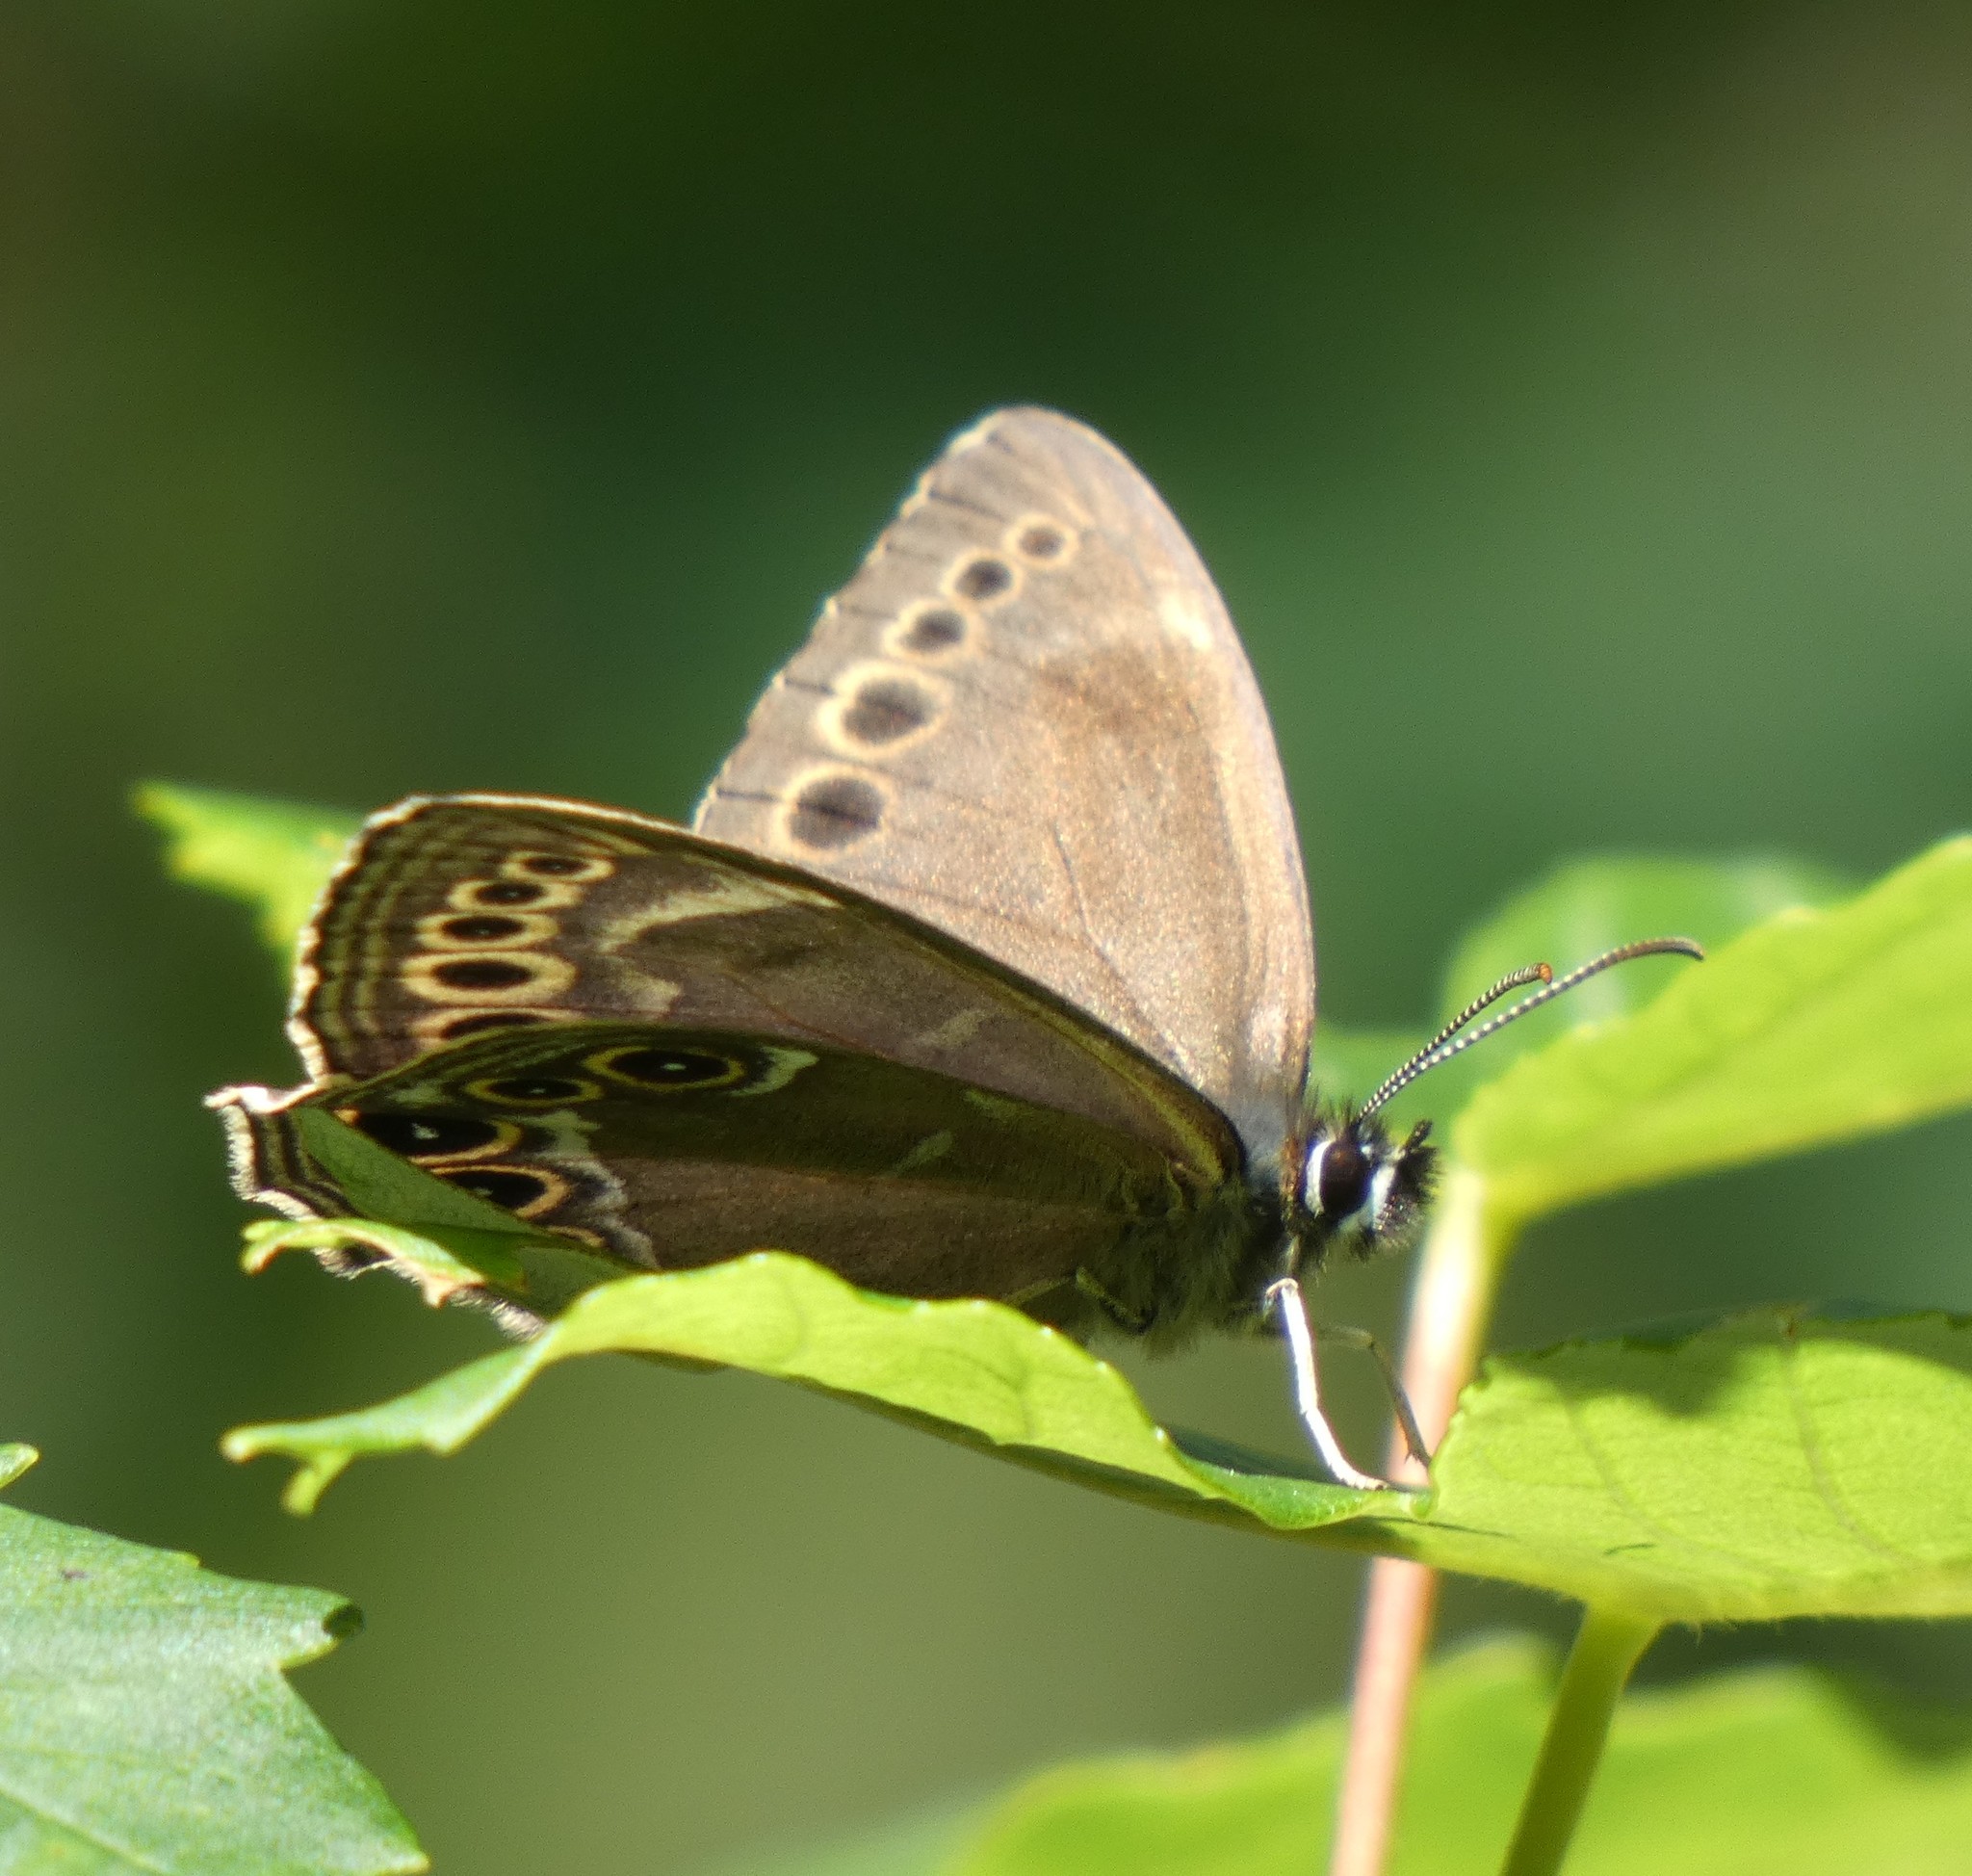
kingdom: Animalia
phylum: Arthropoda
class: Insecta
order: Lepidoptera
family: Nymphalidae
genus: Pararge
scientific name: Pararge Lopinga achine
